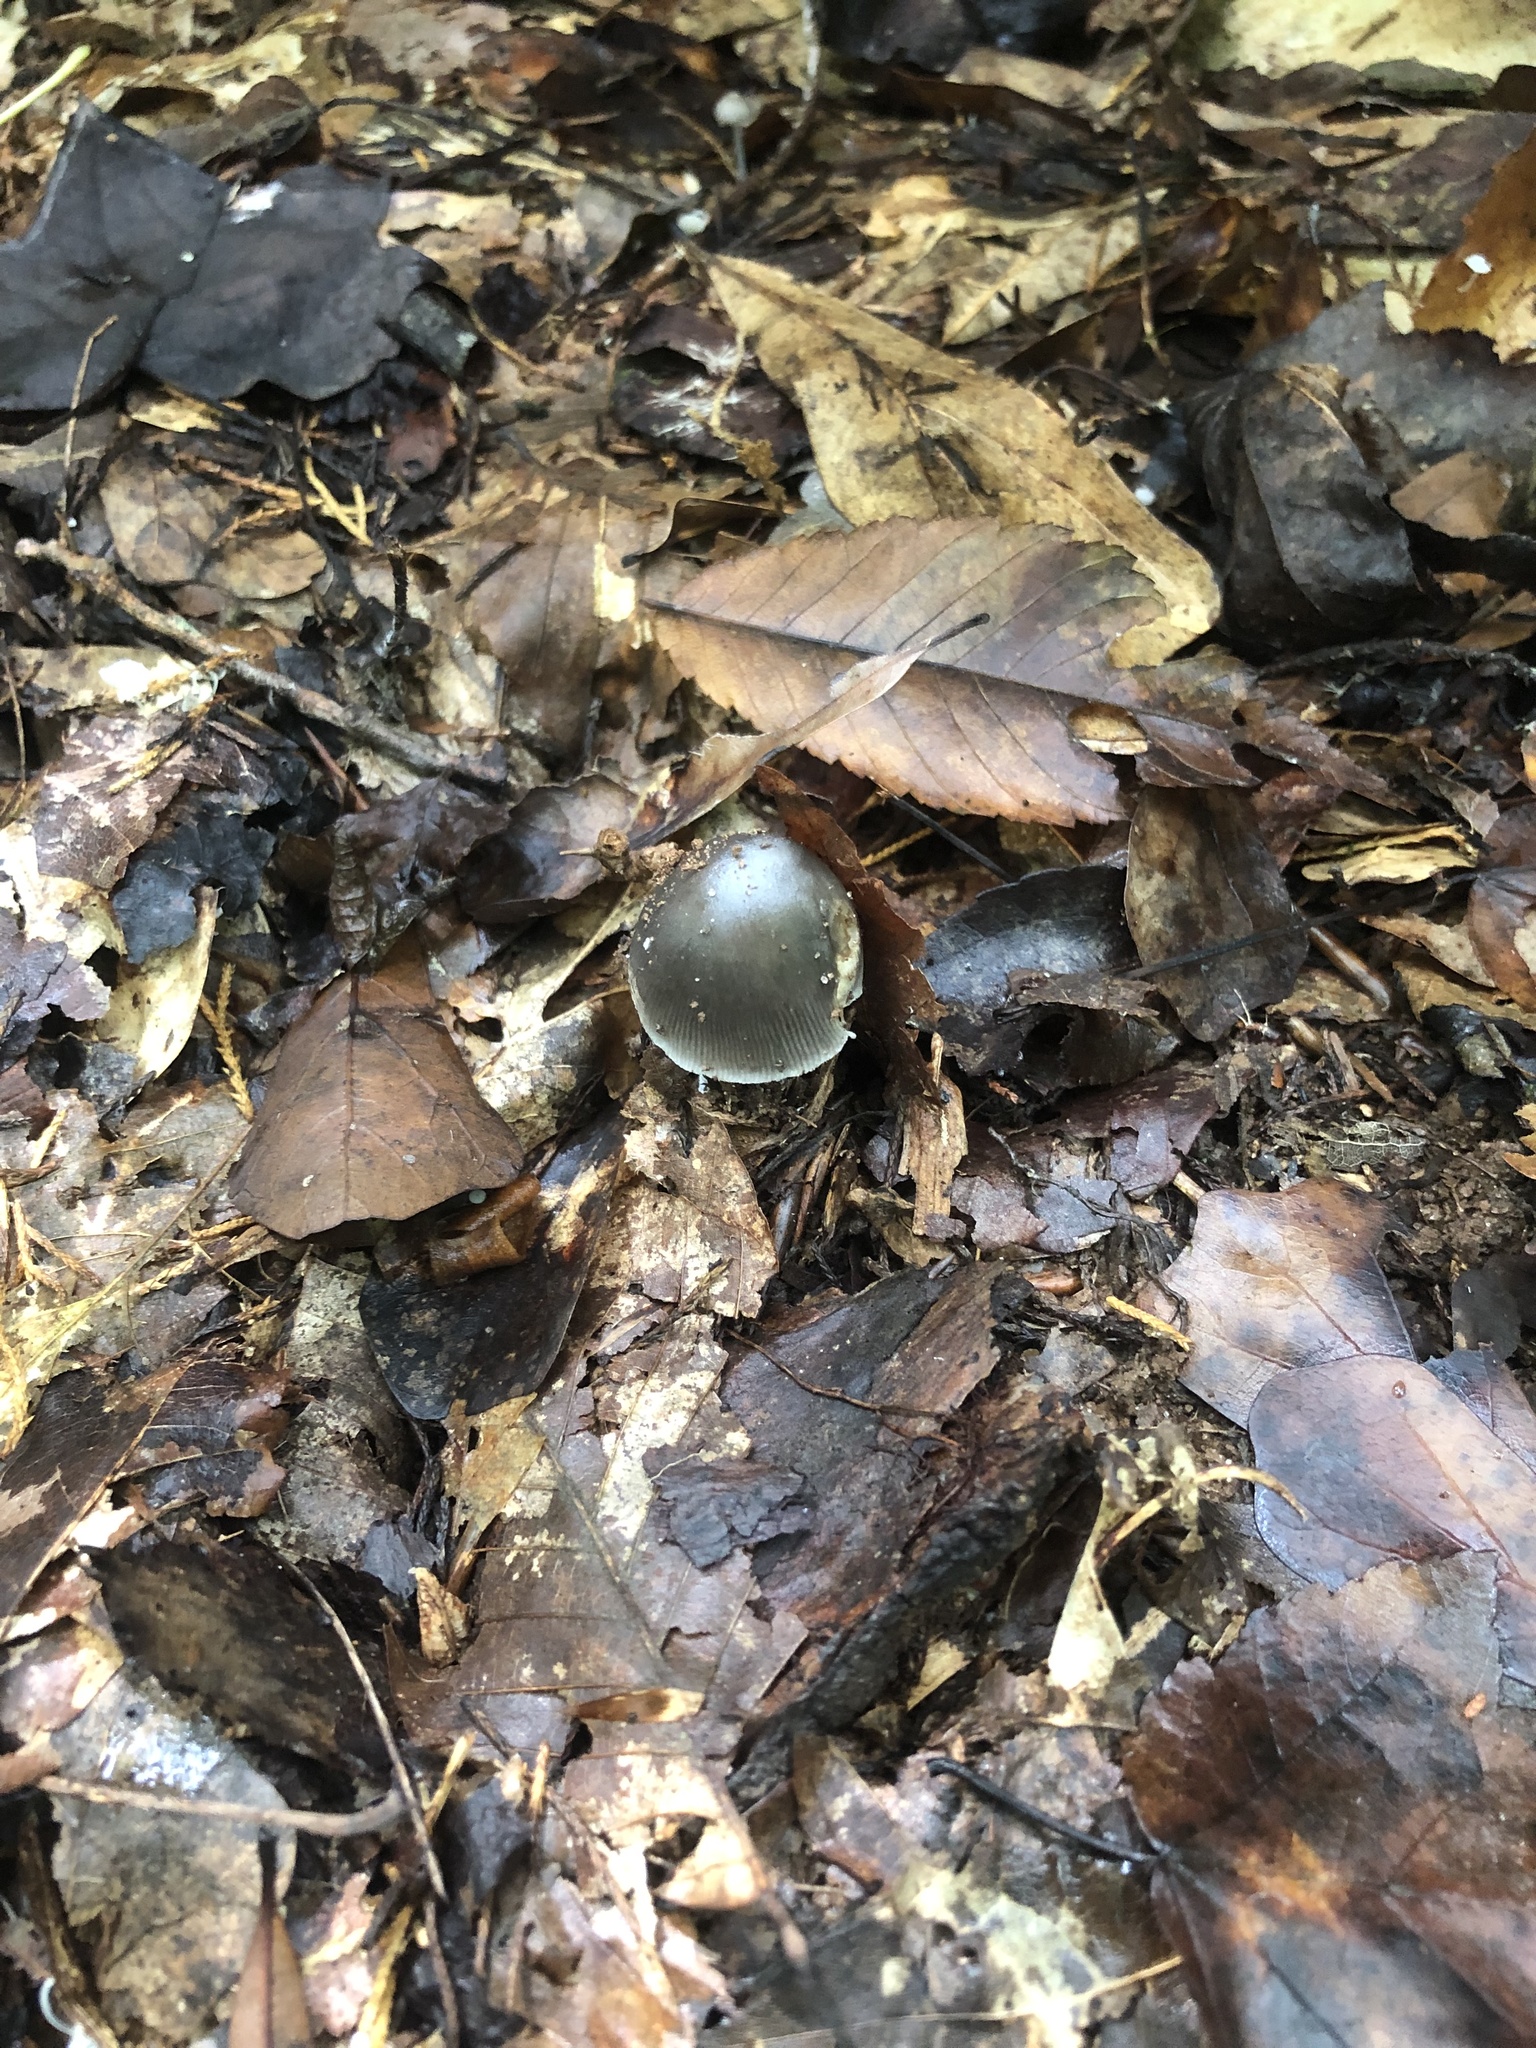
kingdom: Fungi
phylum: Basidiomycota
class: Agaricomycetes
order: Agaricales
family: Amanitaceae
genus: Amanita
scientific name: Amanita
